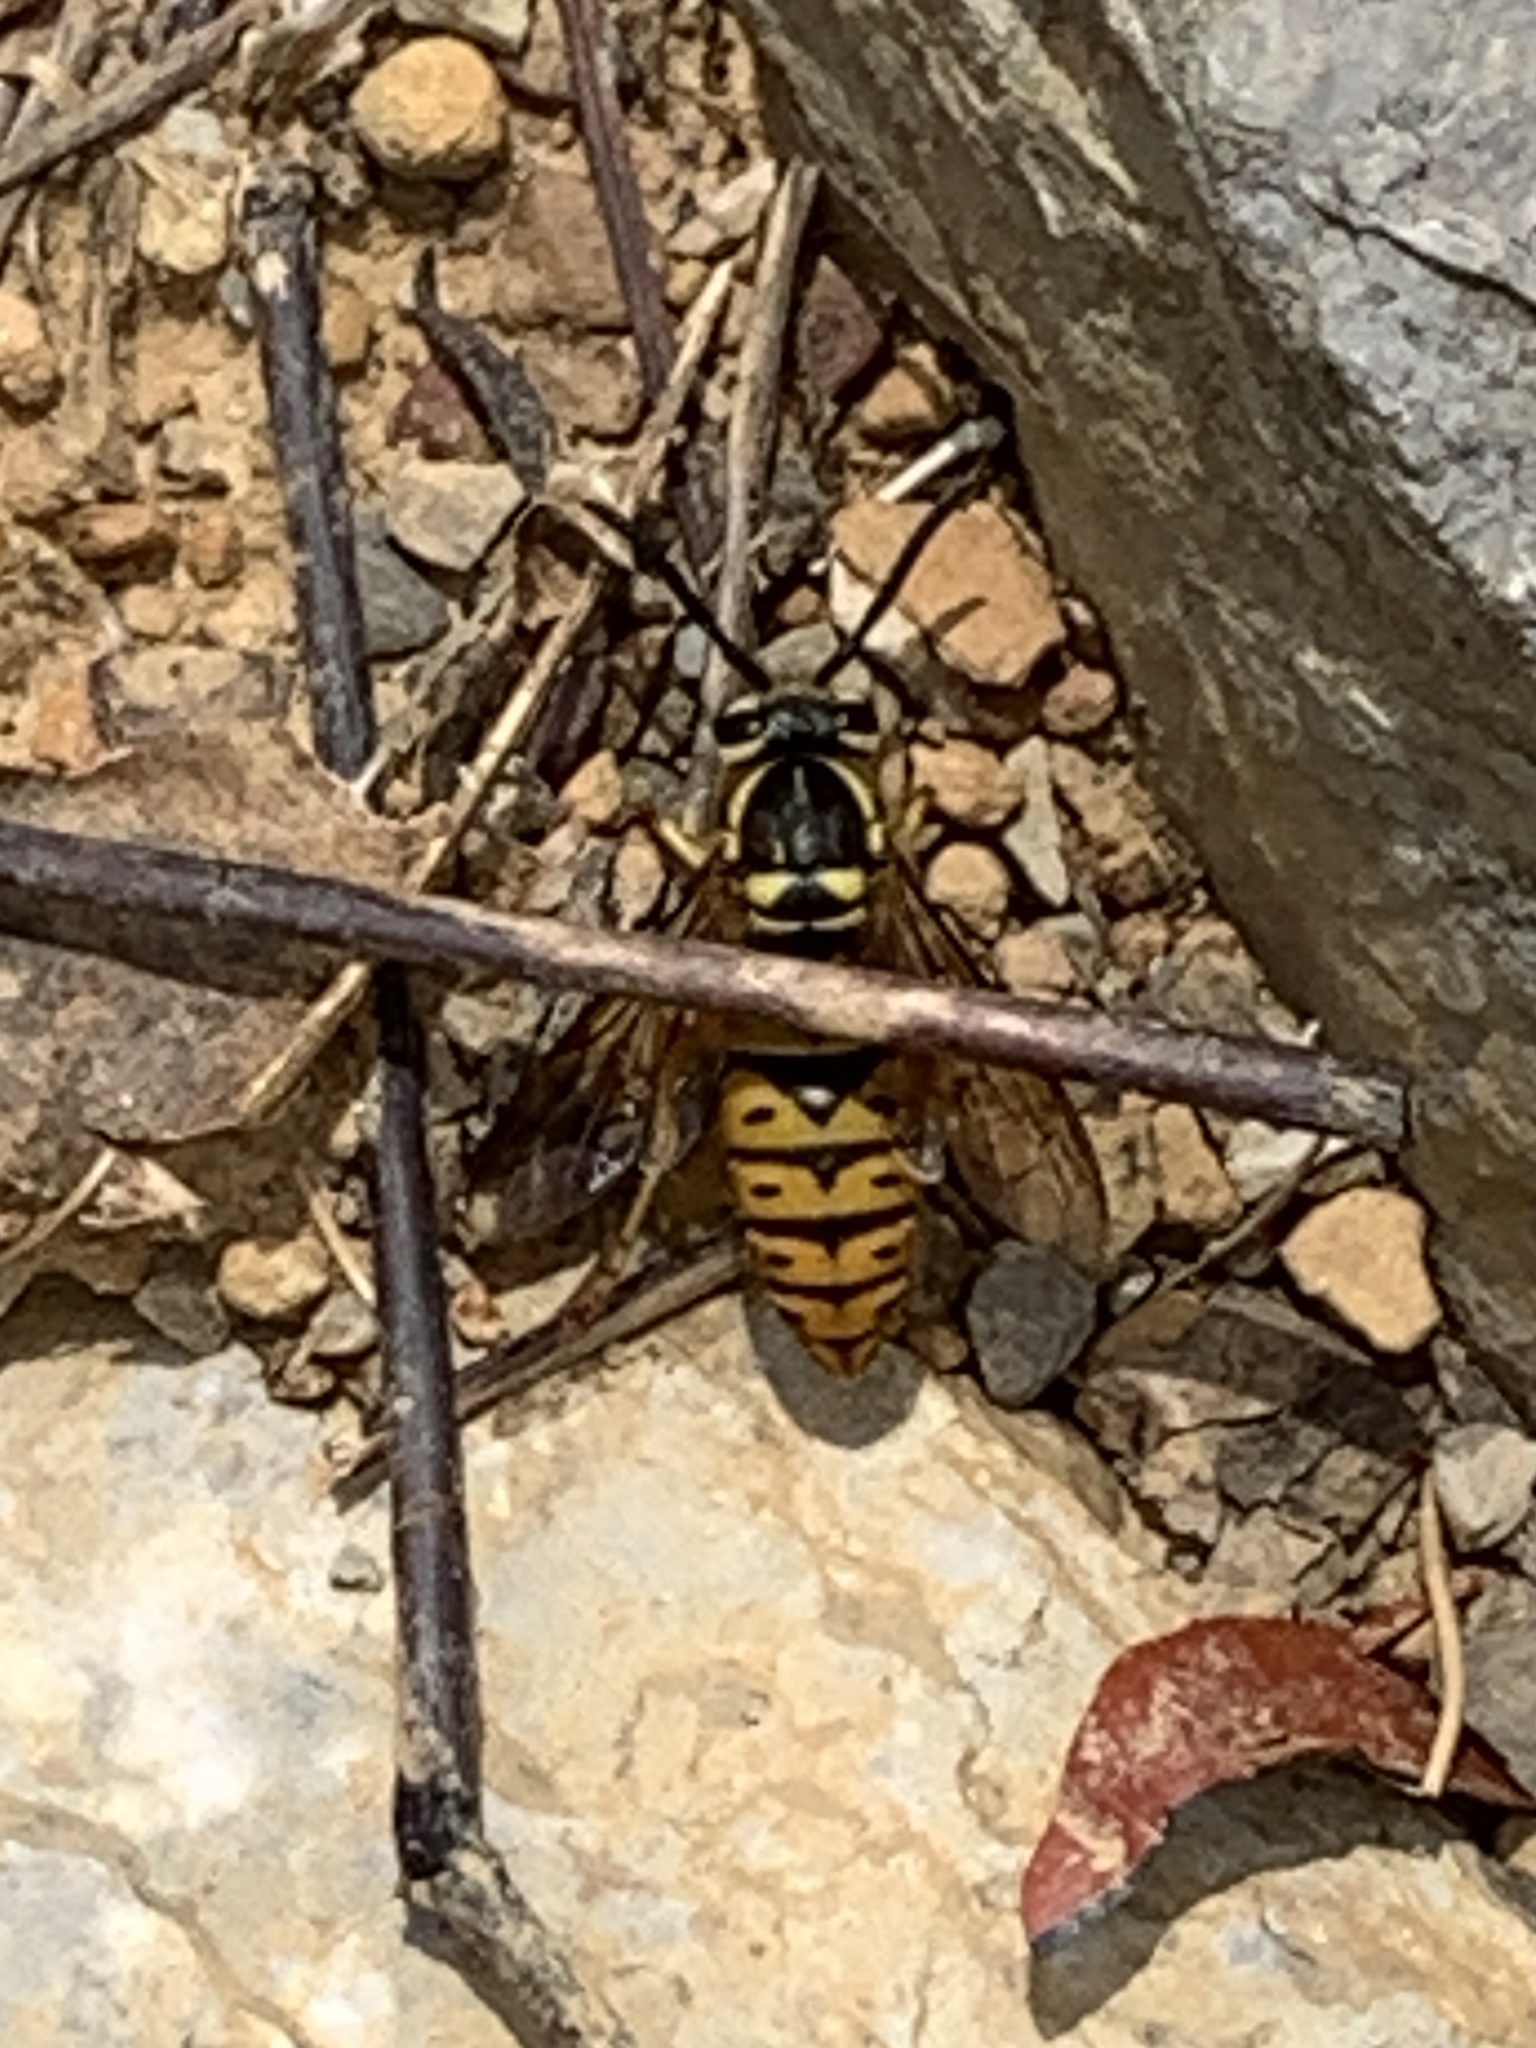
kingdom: Animalia
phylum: Arthropoda
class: Insecta
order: Hymenoptera
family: Vespidae
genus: Vespula
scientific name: Vespula
